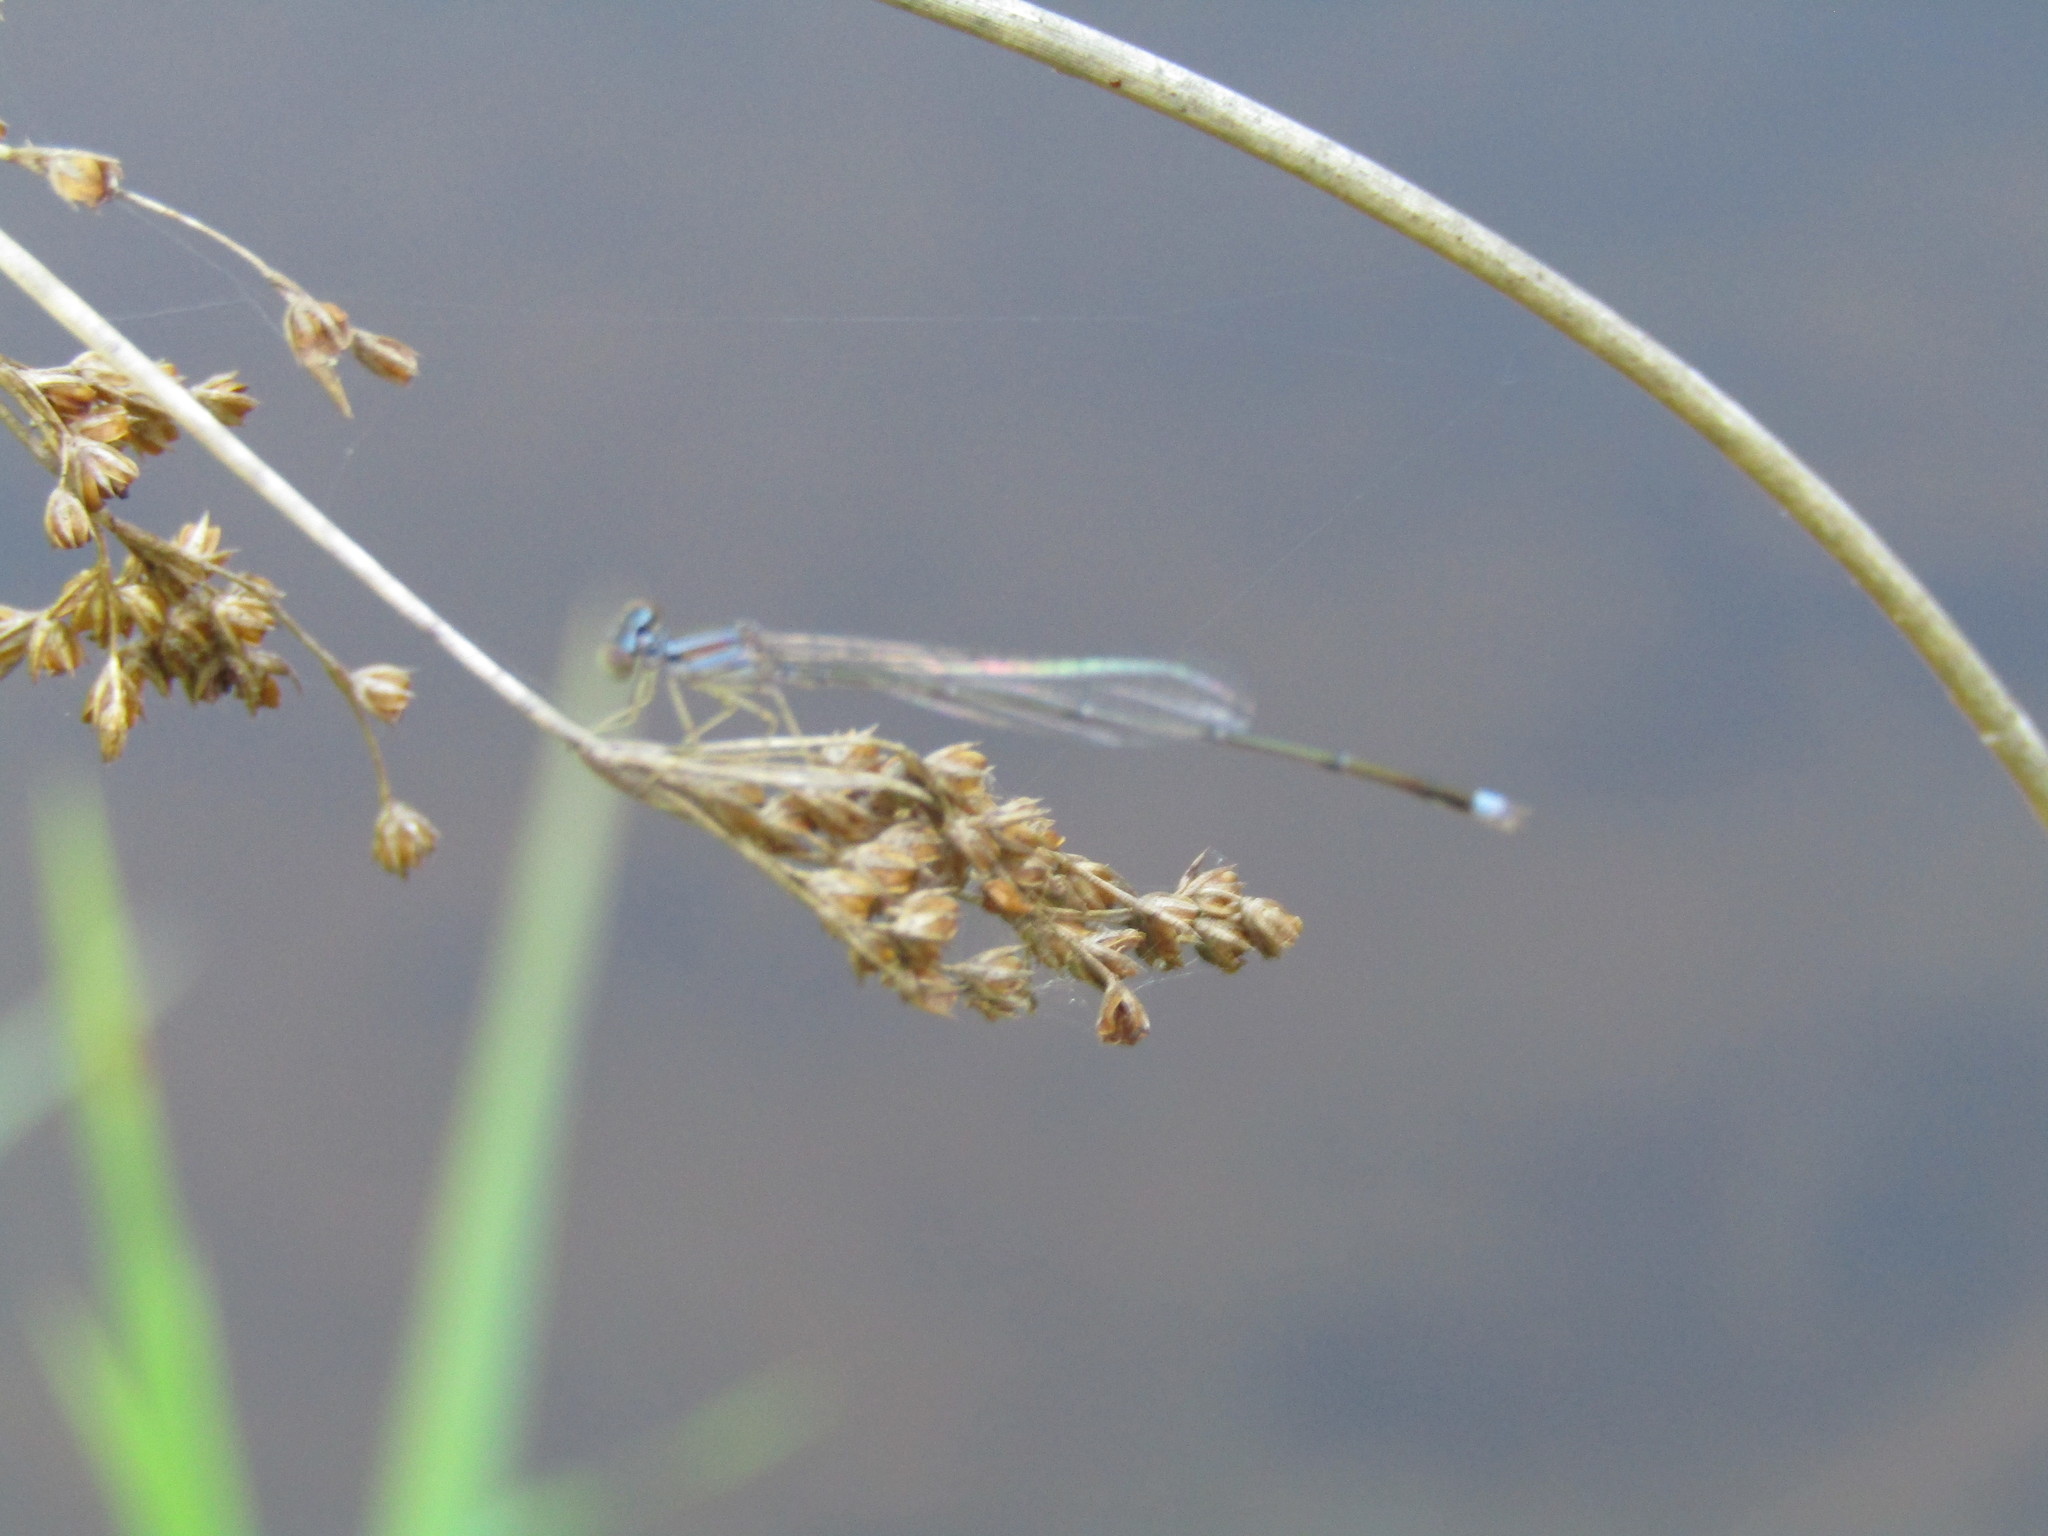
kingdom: Animalia
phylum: Arthropoda
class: Insecta
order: Odonata
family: Coenagrionidae
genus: Enallagma
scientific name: Enallagma signatum
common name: Orange bluet
